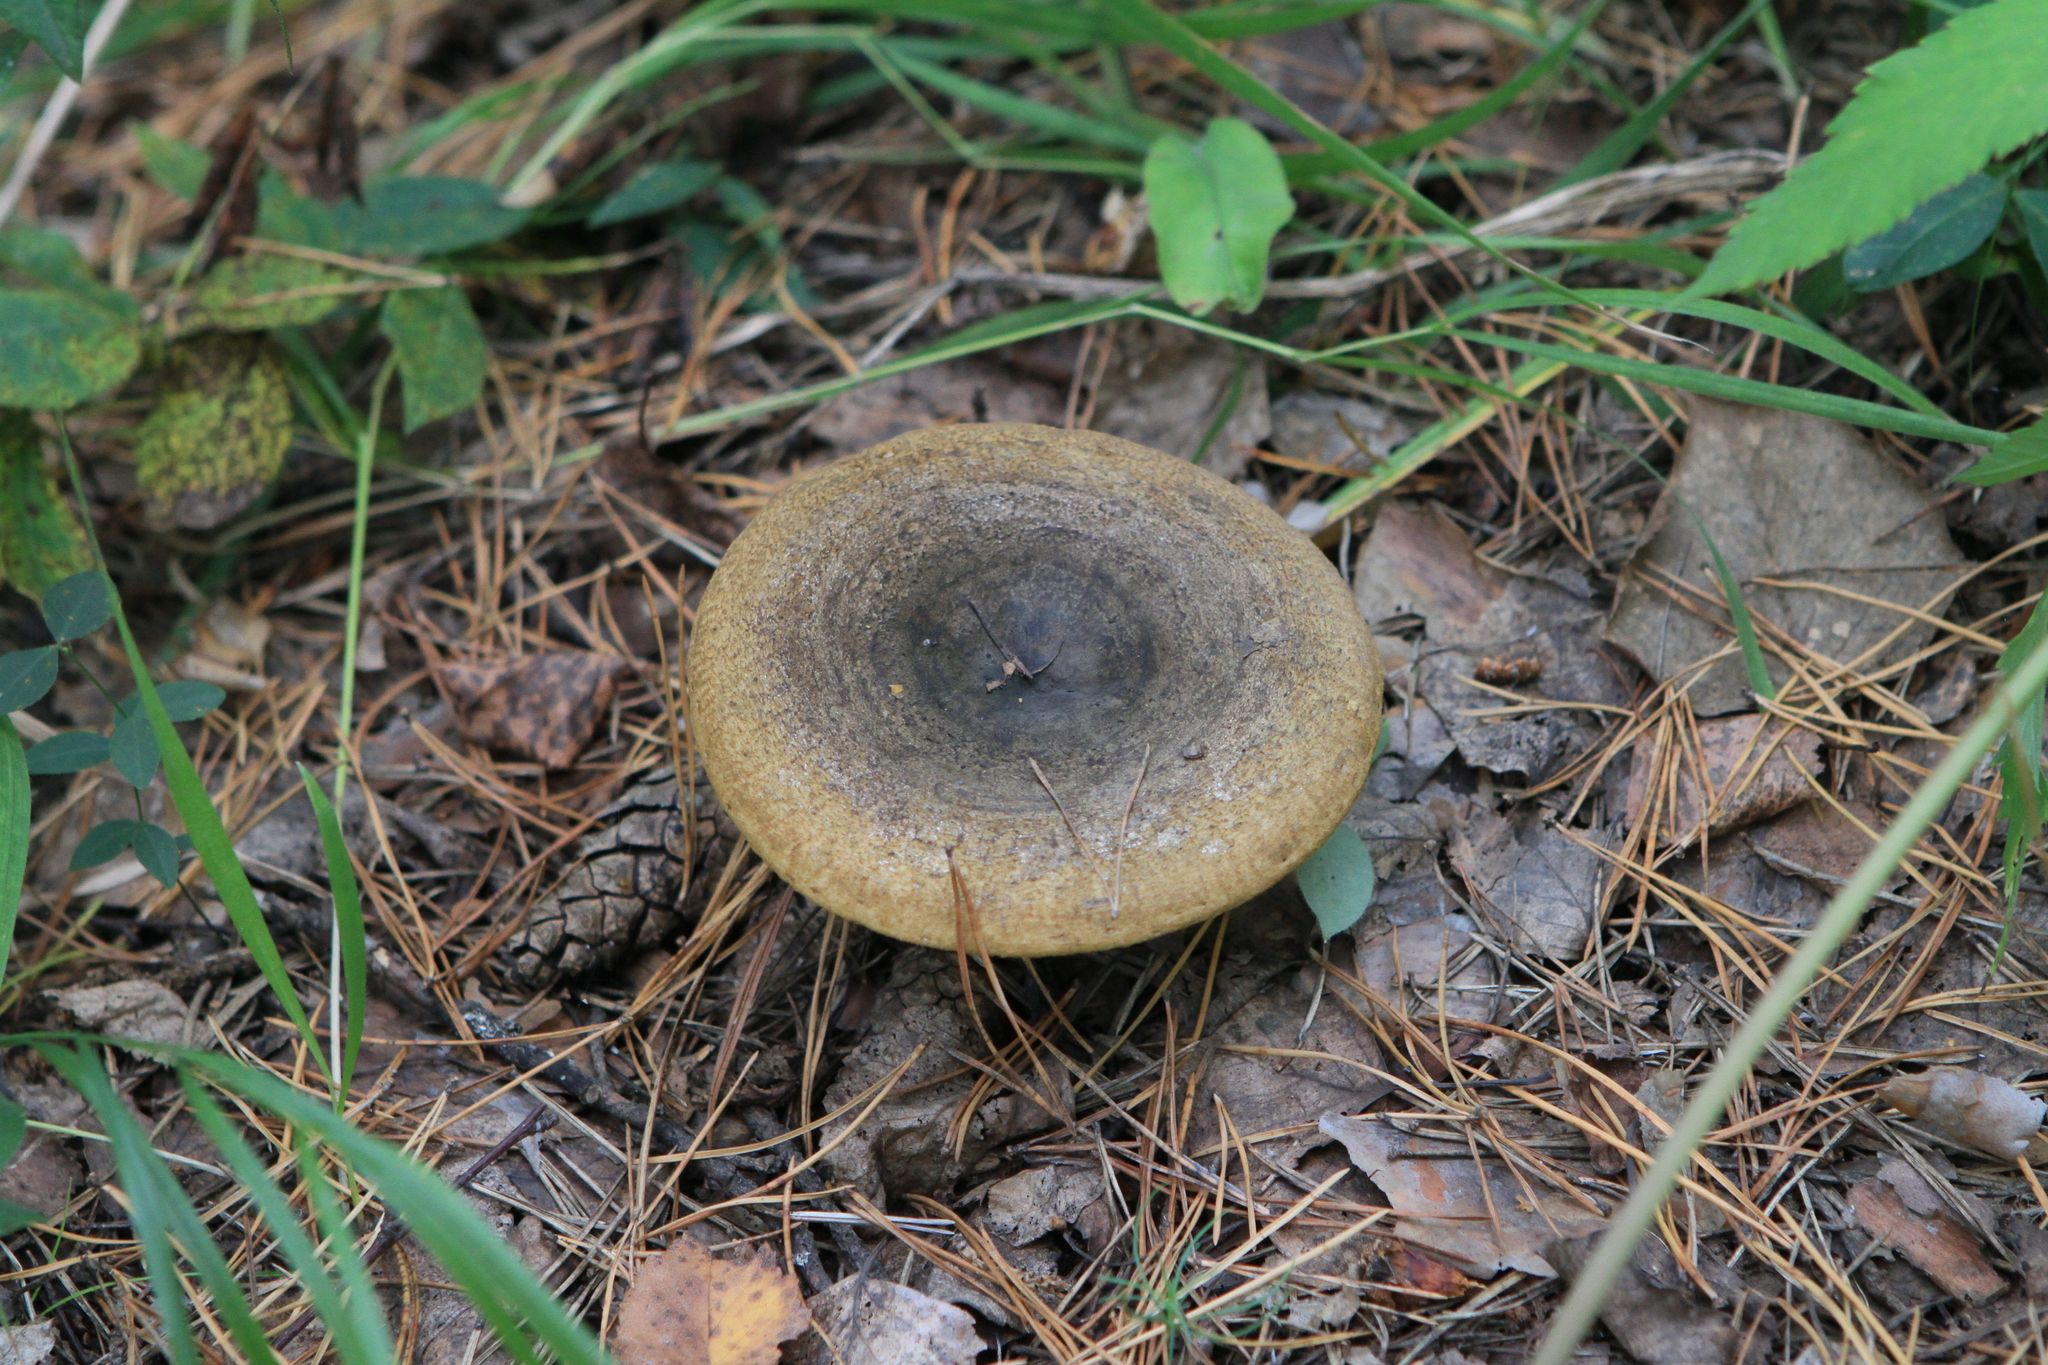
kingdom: Fungi
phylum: Basidiomycota
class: Agaricomycetes
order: Russulales
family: Russulaceae
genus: Lactarius
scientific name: Lactarius turpis
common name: Ugly milk-cap
